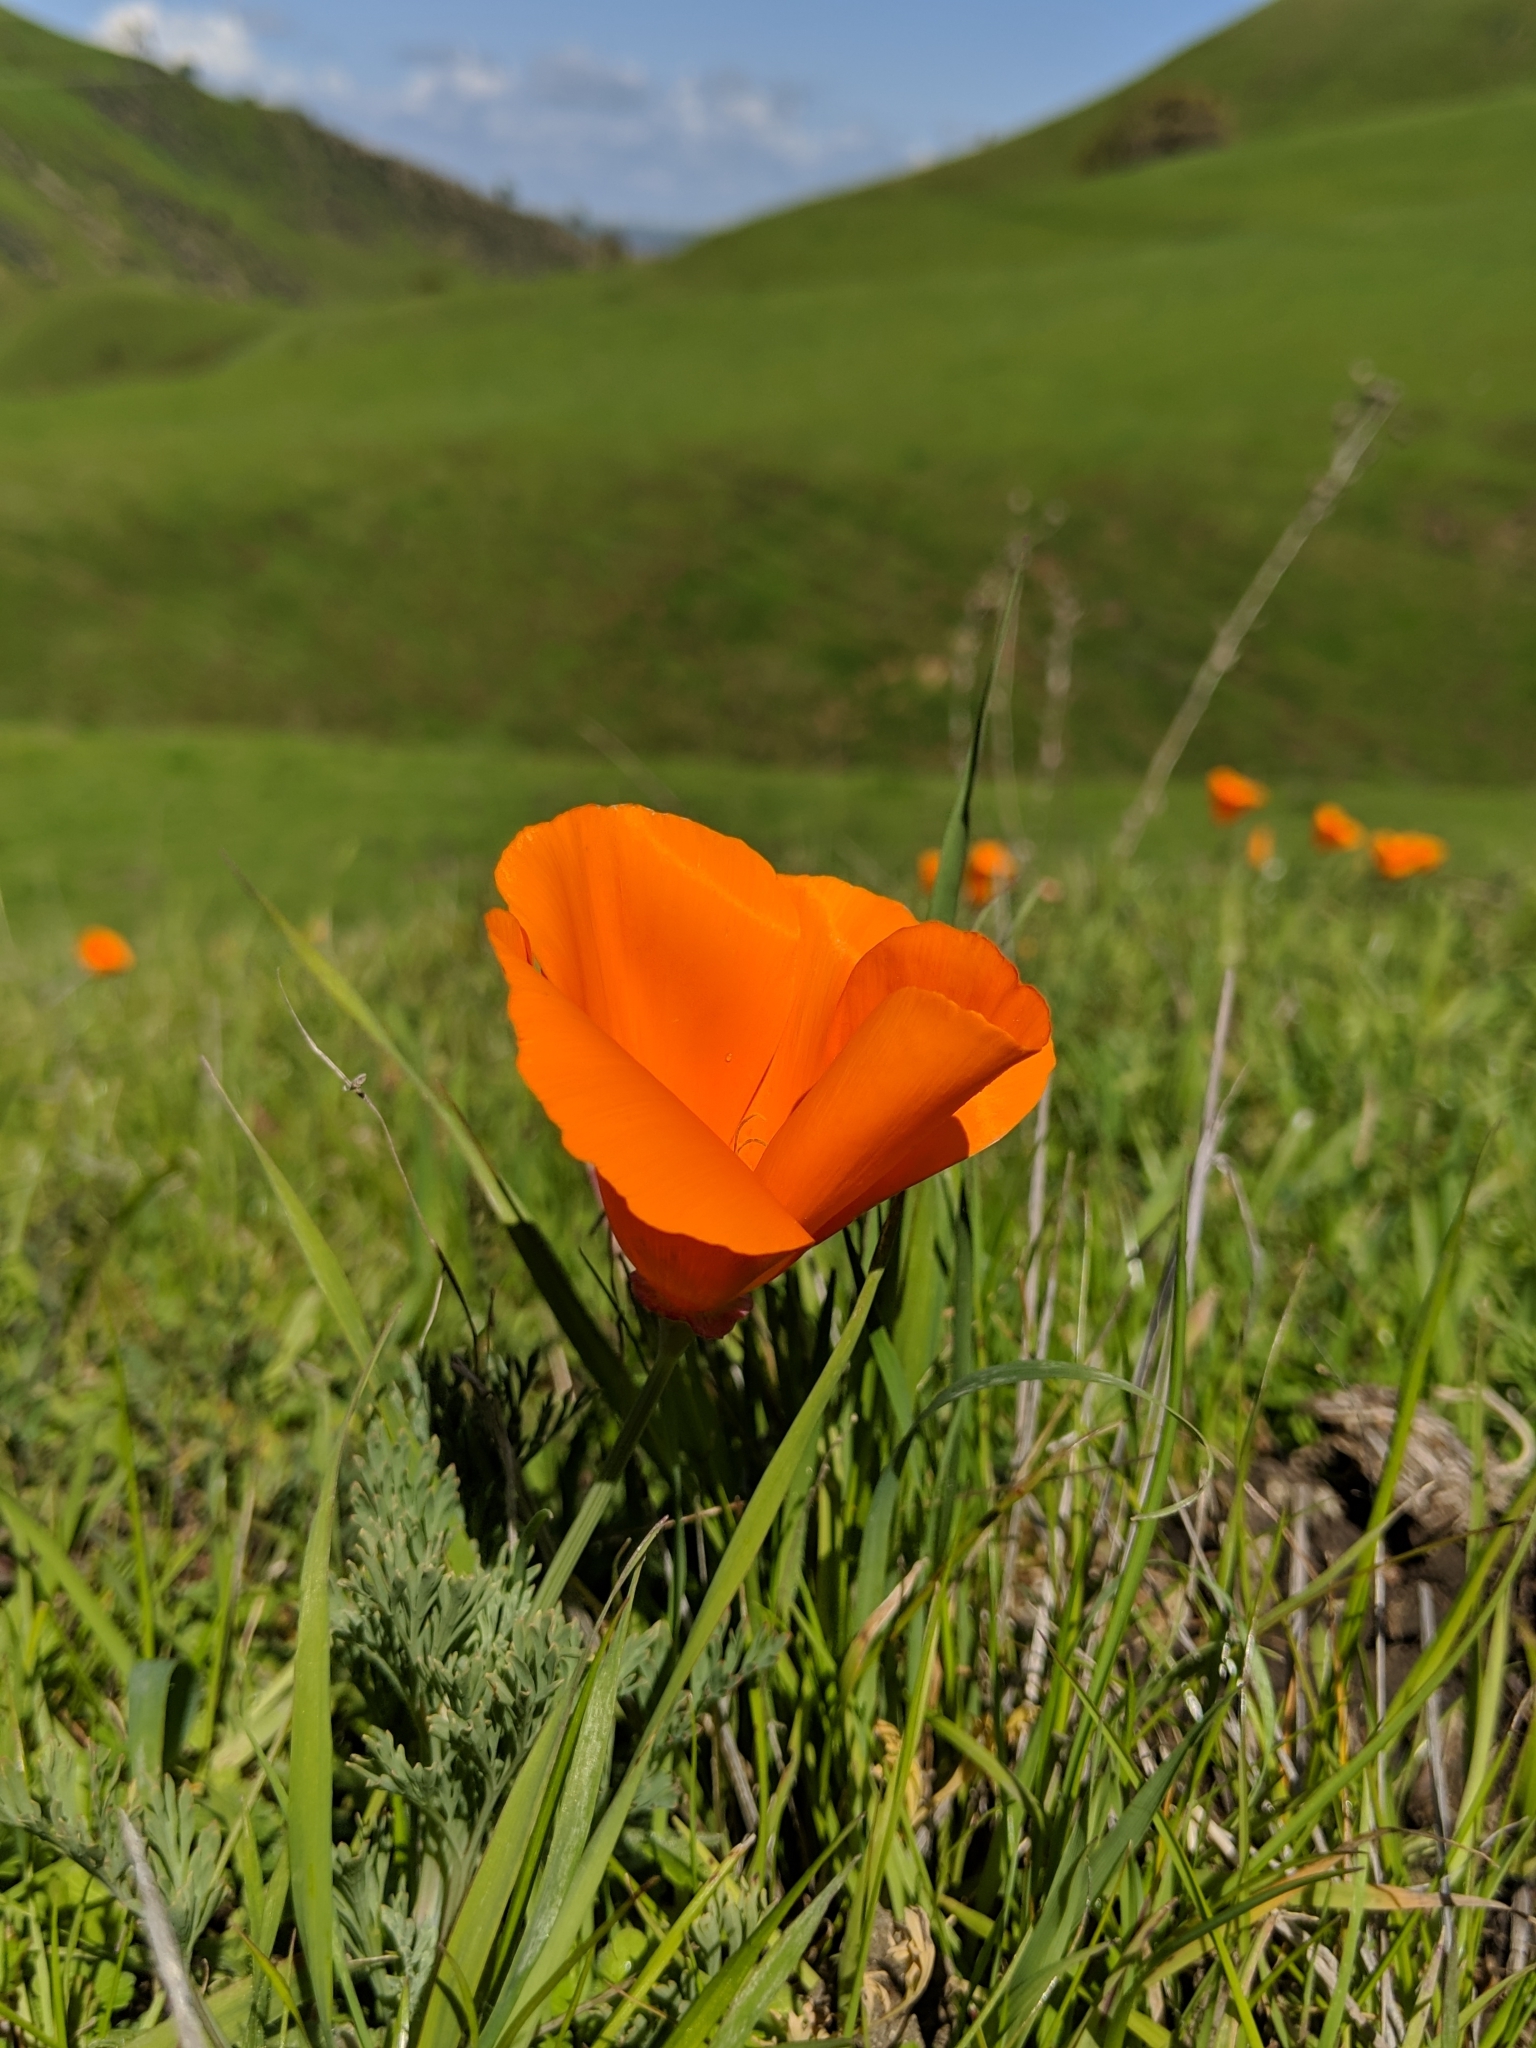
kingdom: Plantae
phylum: Tracheophyta
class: Magnoliopsida
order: Ranunculales
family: Papaveraceae
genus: Eschscholzia
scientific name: Eschscholzia californica
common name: California poppy
